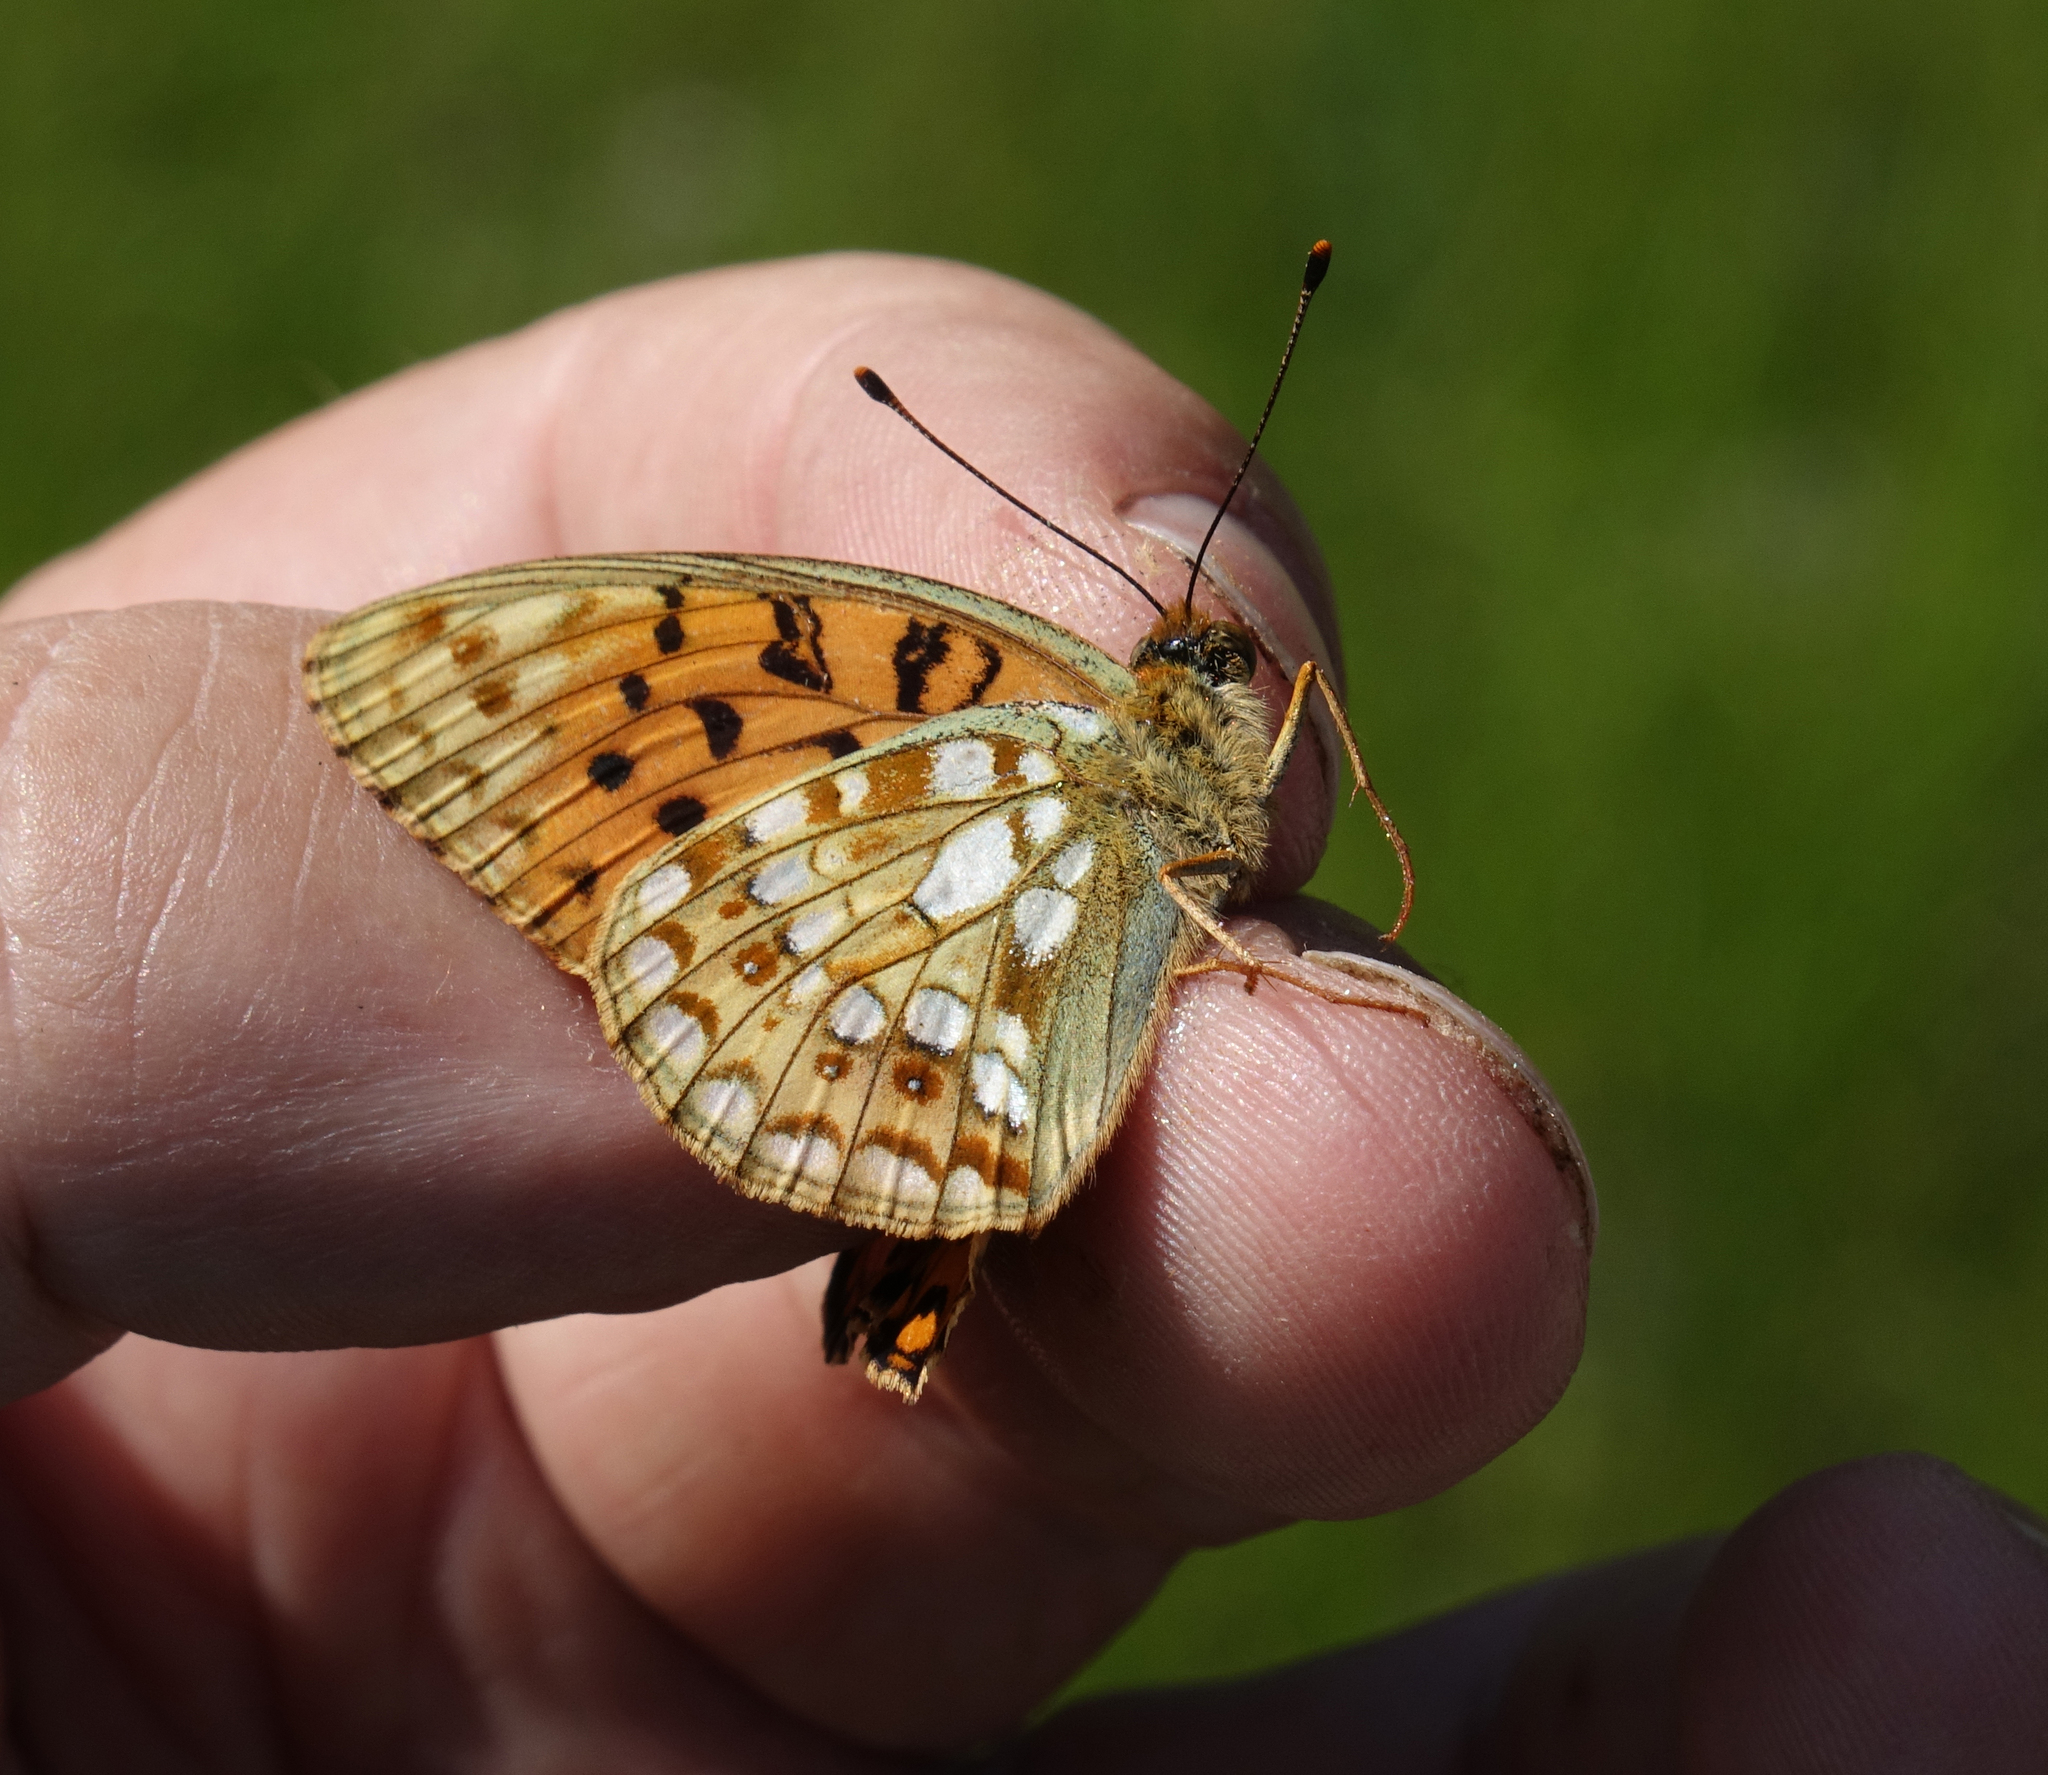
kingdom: Animalia
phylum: Arthropoda
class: Insecta
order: Lepidoptera
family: Nymphalidae
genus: Fabriciana
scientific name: Fabriciana niobe
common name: Niobe fritillary
